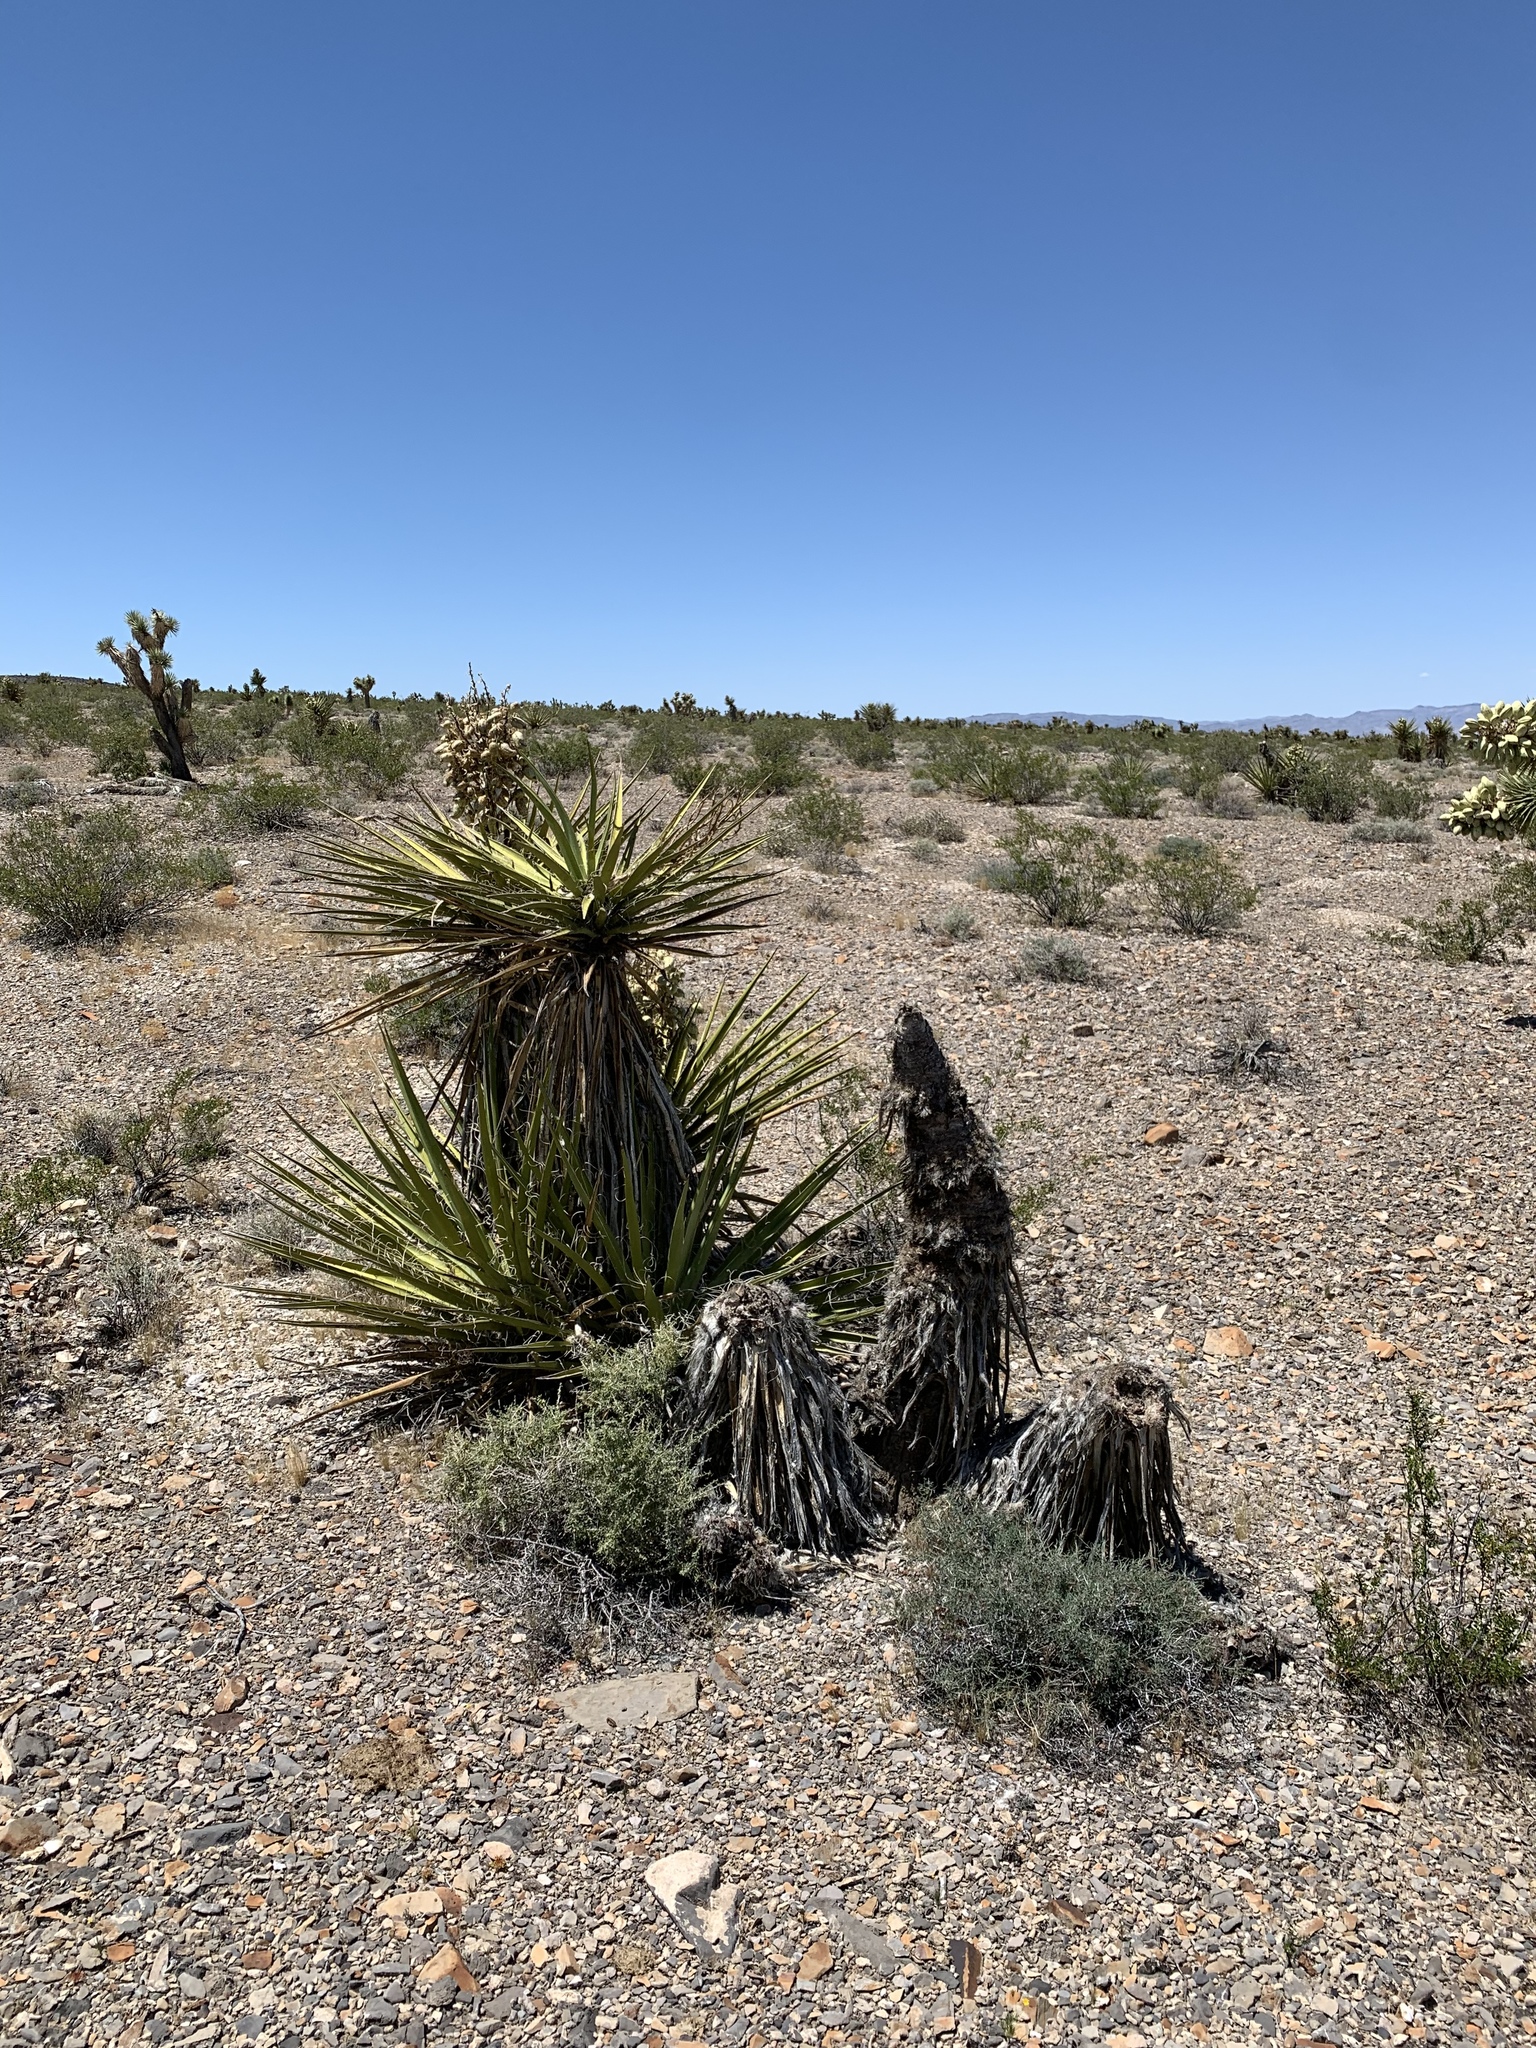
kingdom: Plantae
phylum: Tracheophyta
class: Liliopsida
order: Asparagales
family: Asparagaceae
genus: Yucca
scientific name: Yucca schidigera
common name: Mojave yucca
